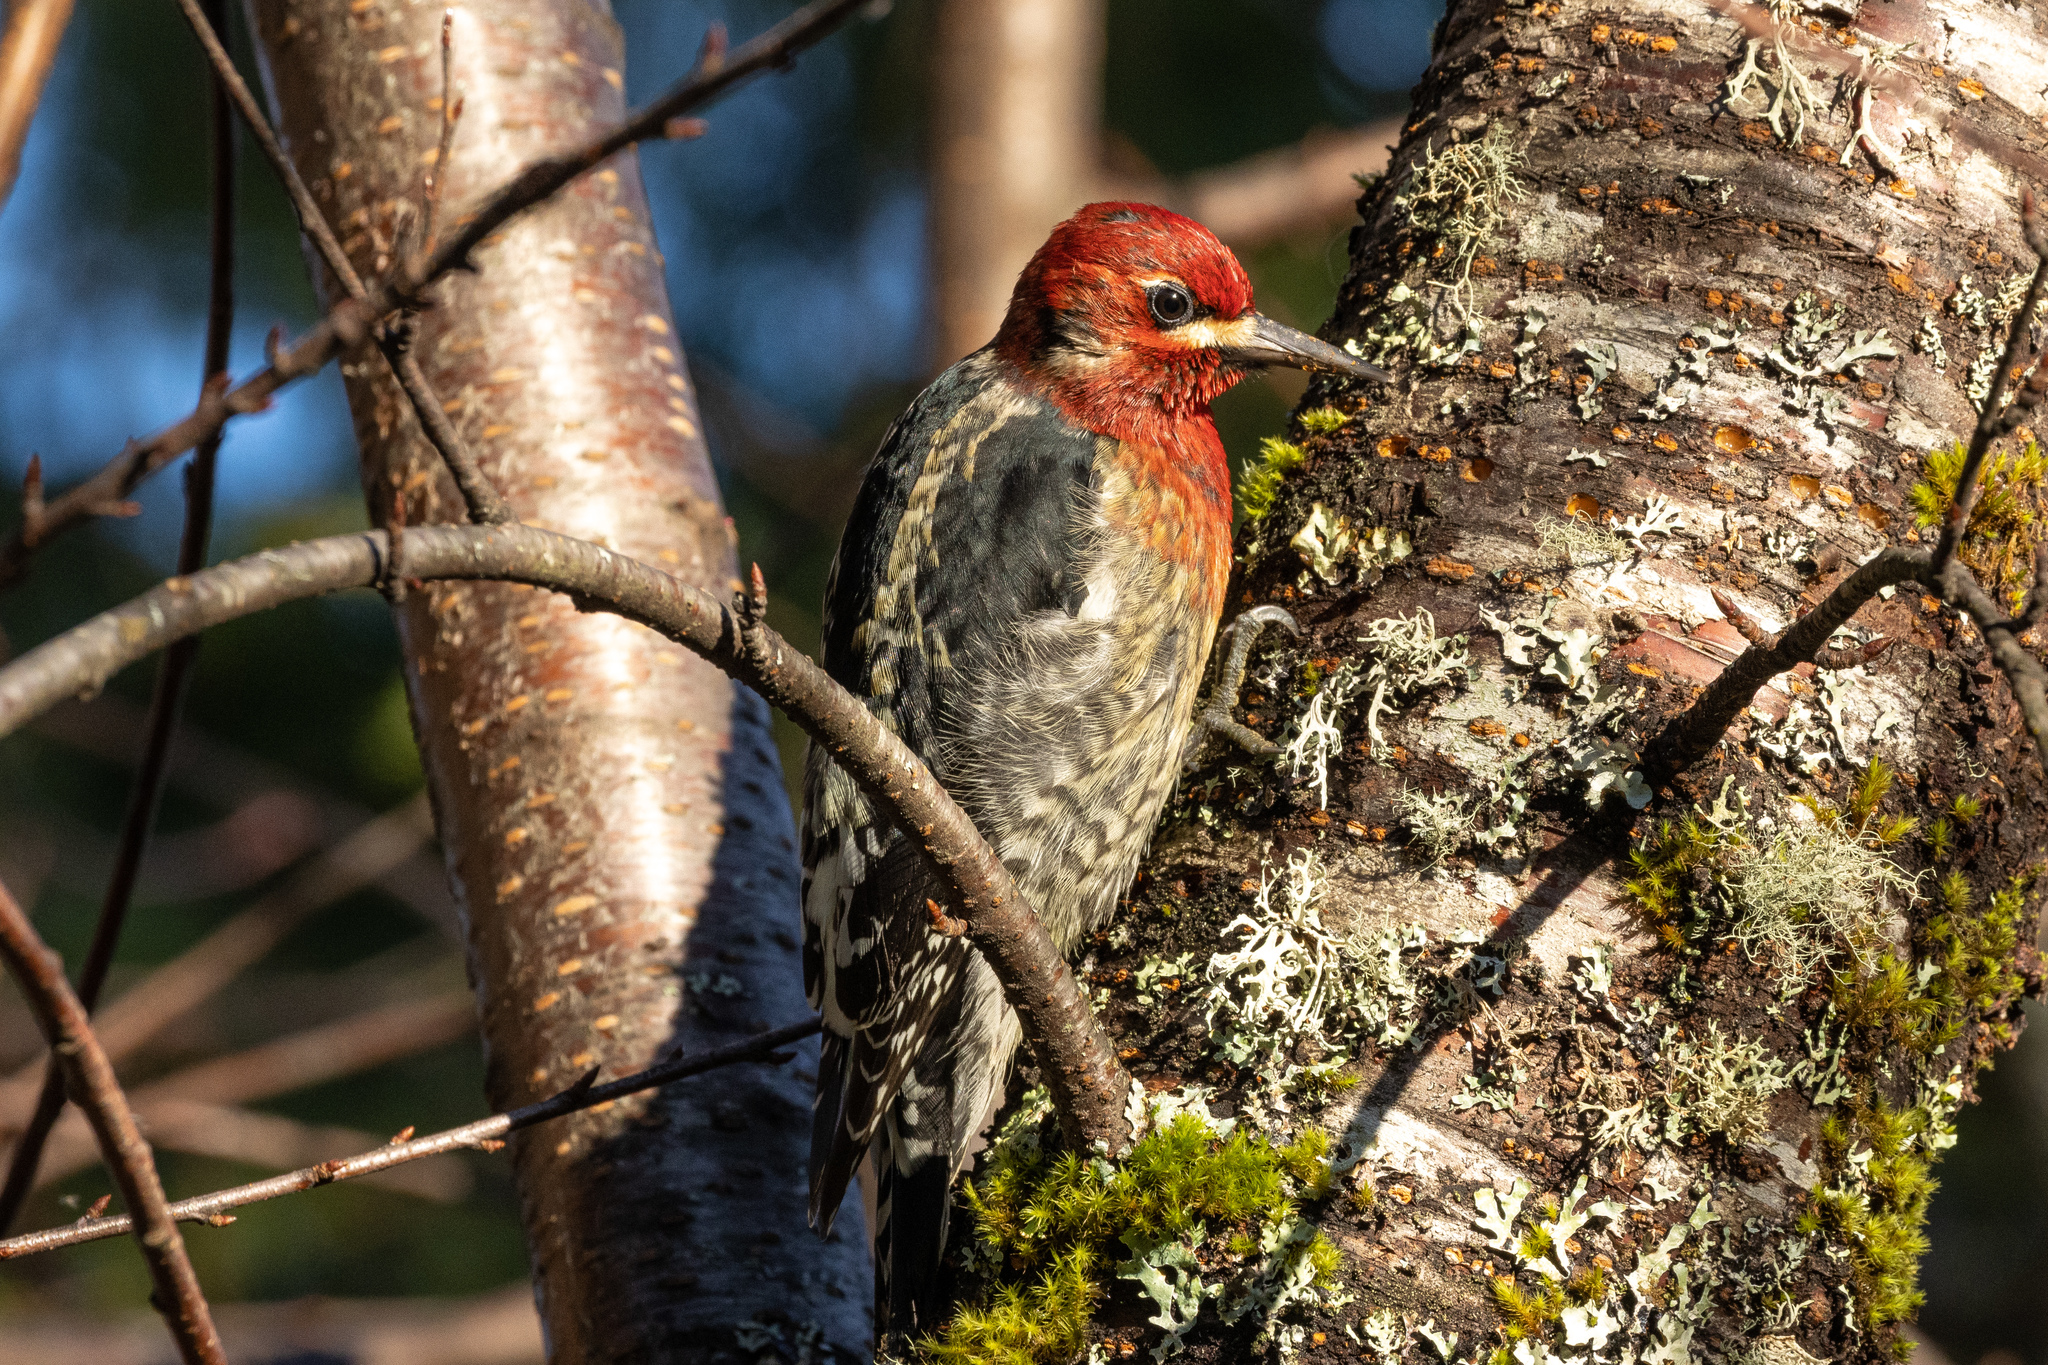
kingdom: Animalia
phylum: Chordata
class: Aves
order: Piciformes
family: Picidae
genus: Sphyrapicus
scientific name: Sphyrapicus ruber
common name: Red-breasted sapsucker
